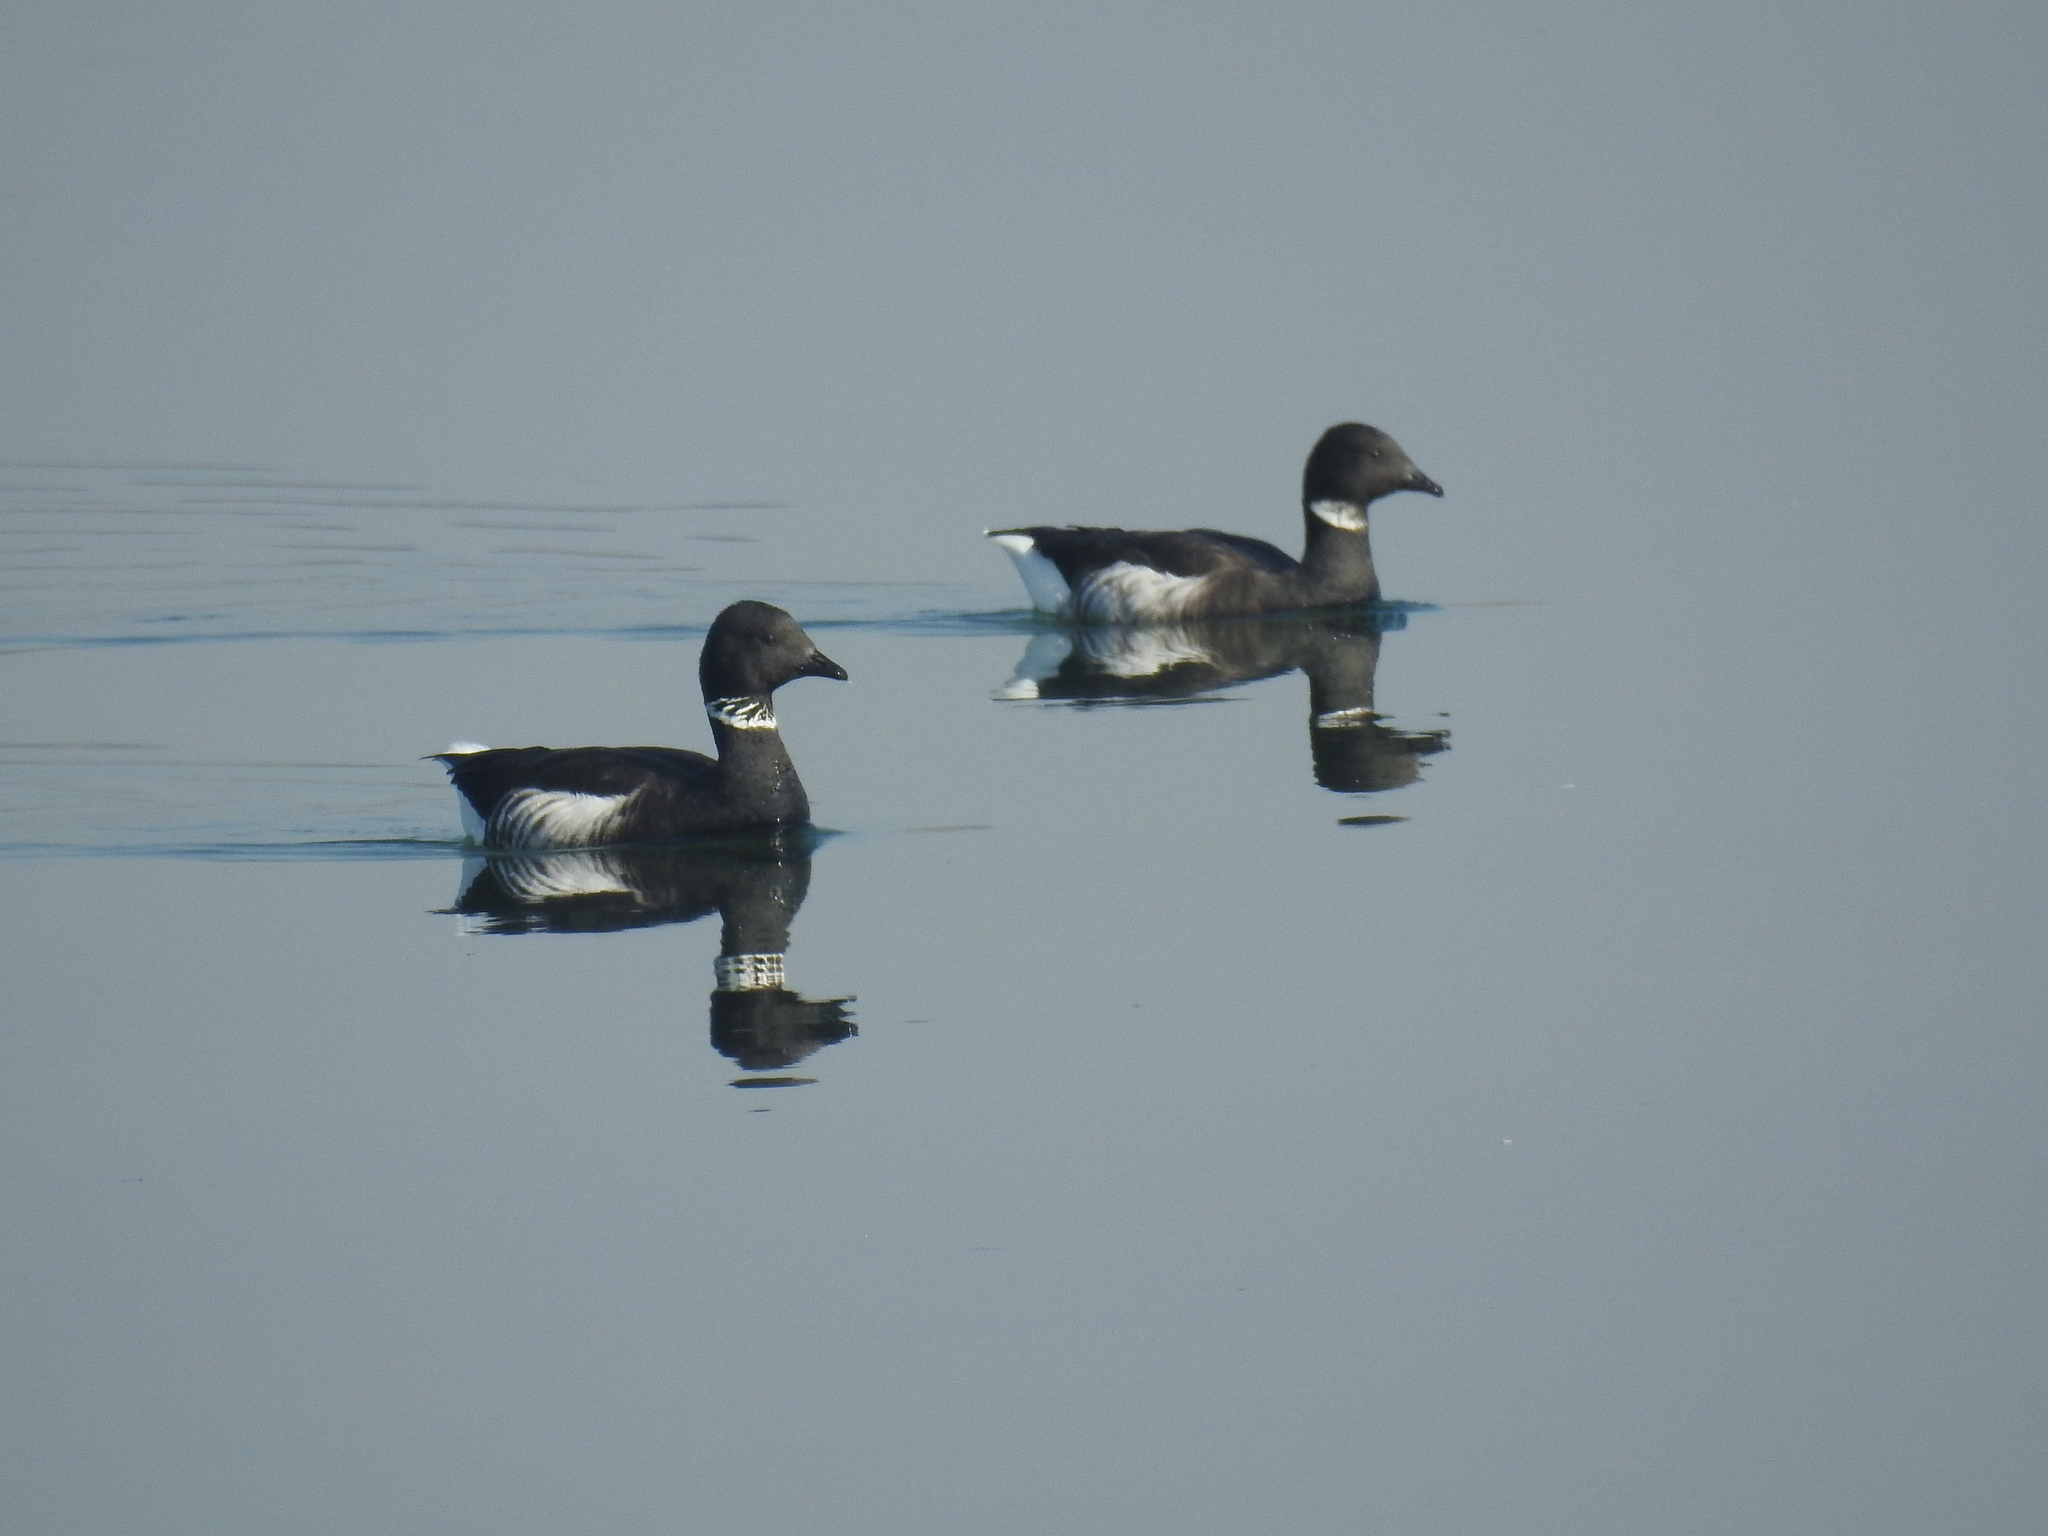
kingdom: Animalia
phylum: Chordata
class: Aves
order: Anseriformes
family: Anatidae
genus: Branta
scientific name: Branta bernicla
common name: Brant goose
